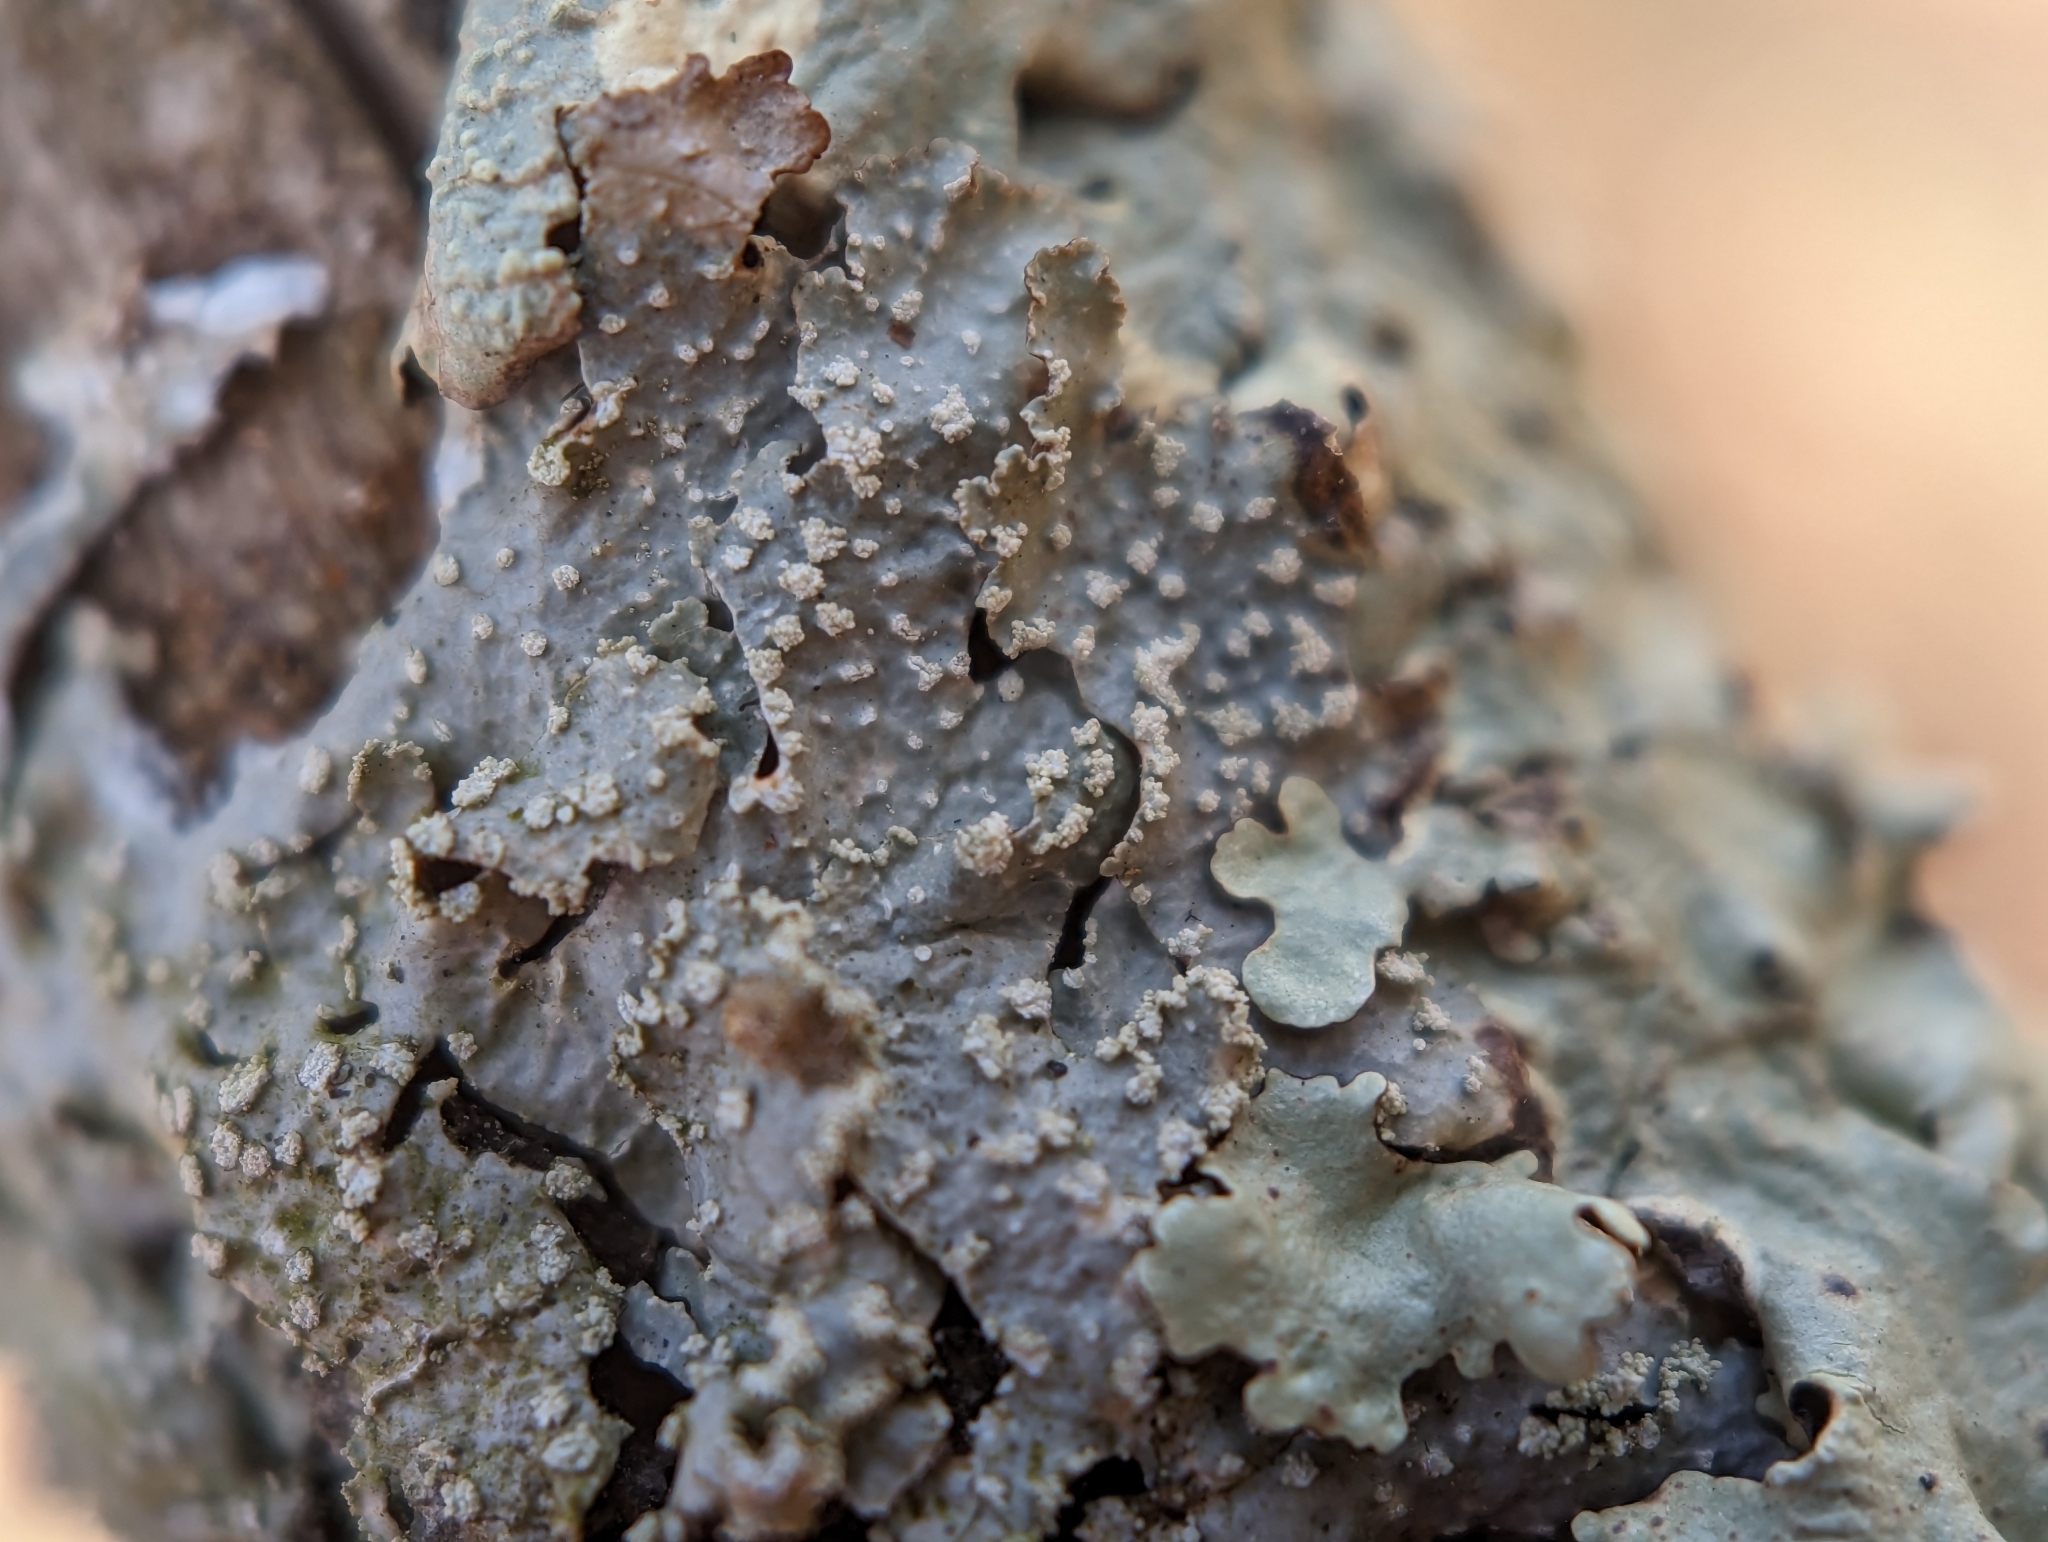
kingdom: Fungi
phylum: Ascomycota
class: Lecanoromycetes
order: Lecanorales
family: Parmeliaceae
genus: Punctelia
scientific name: Punctelia caseana
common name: Moondust speckled lichen
